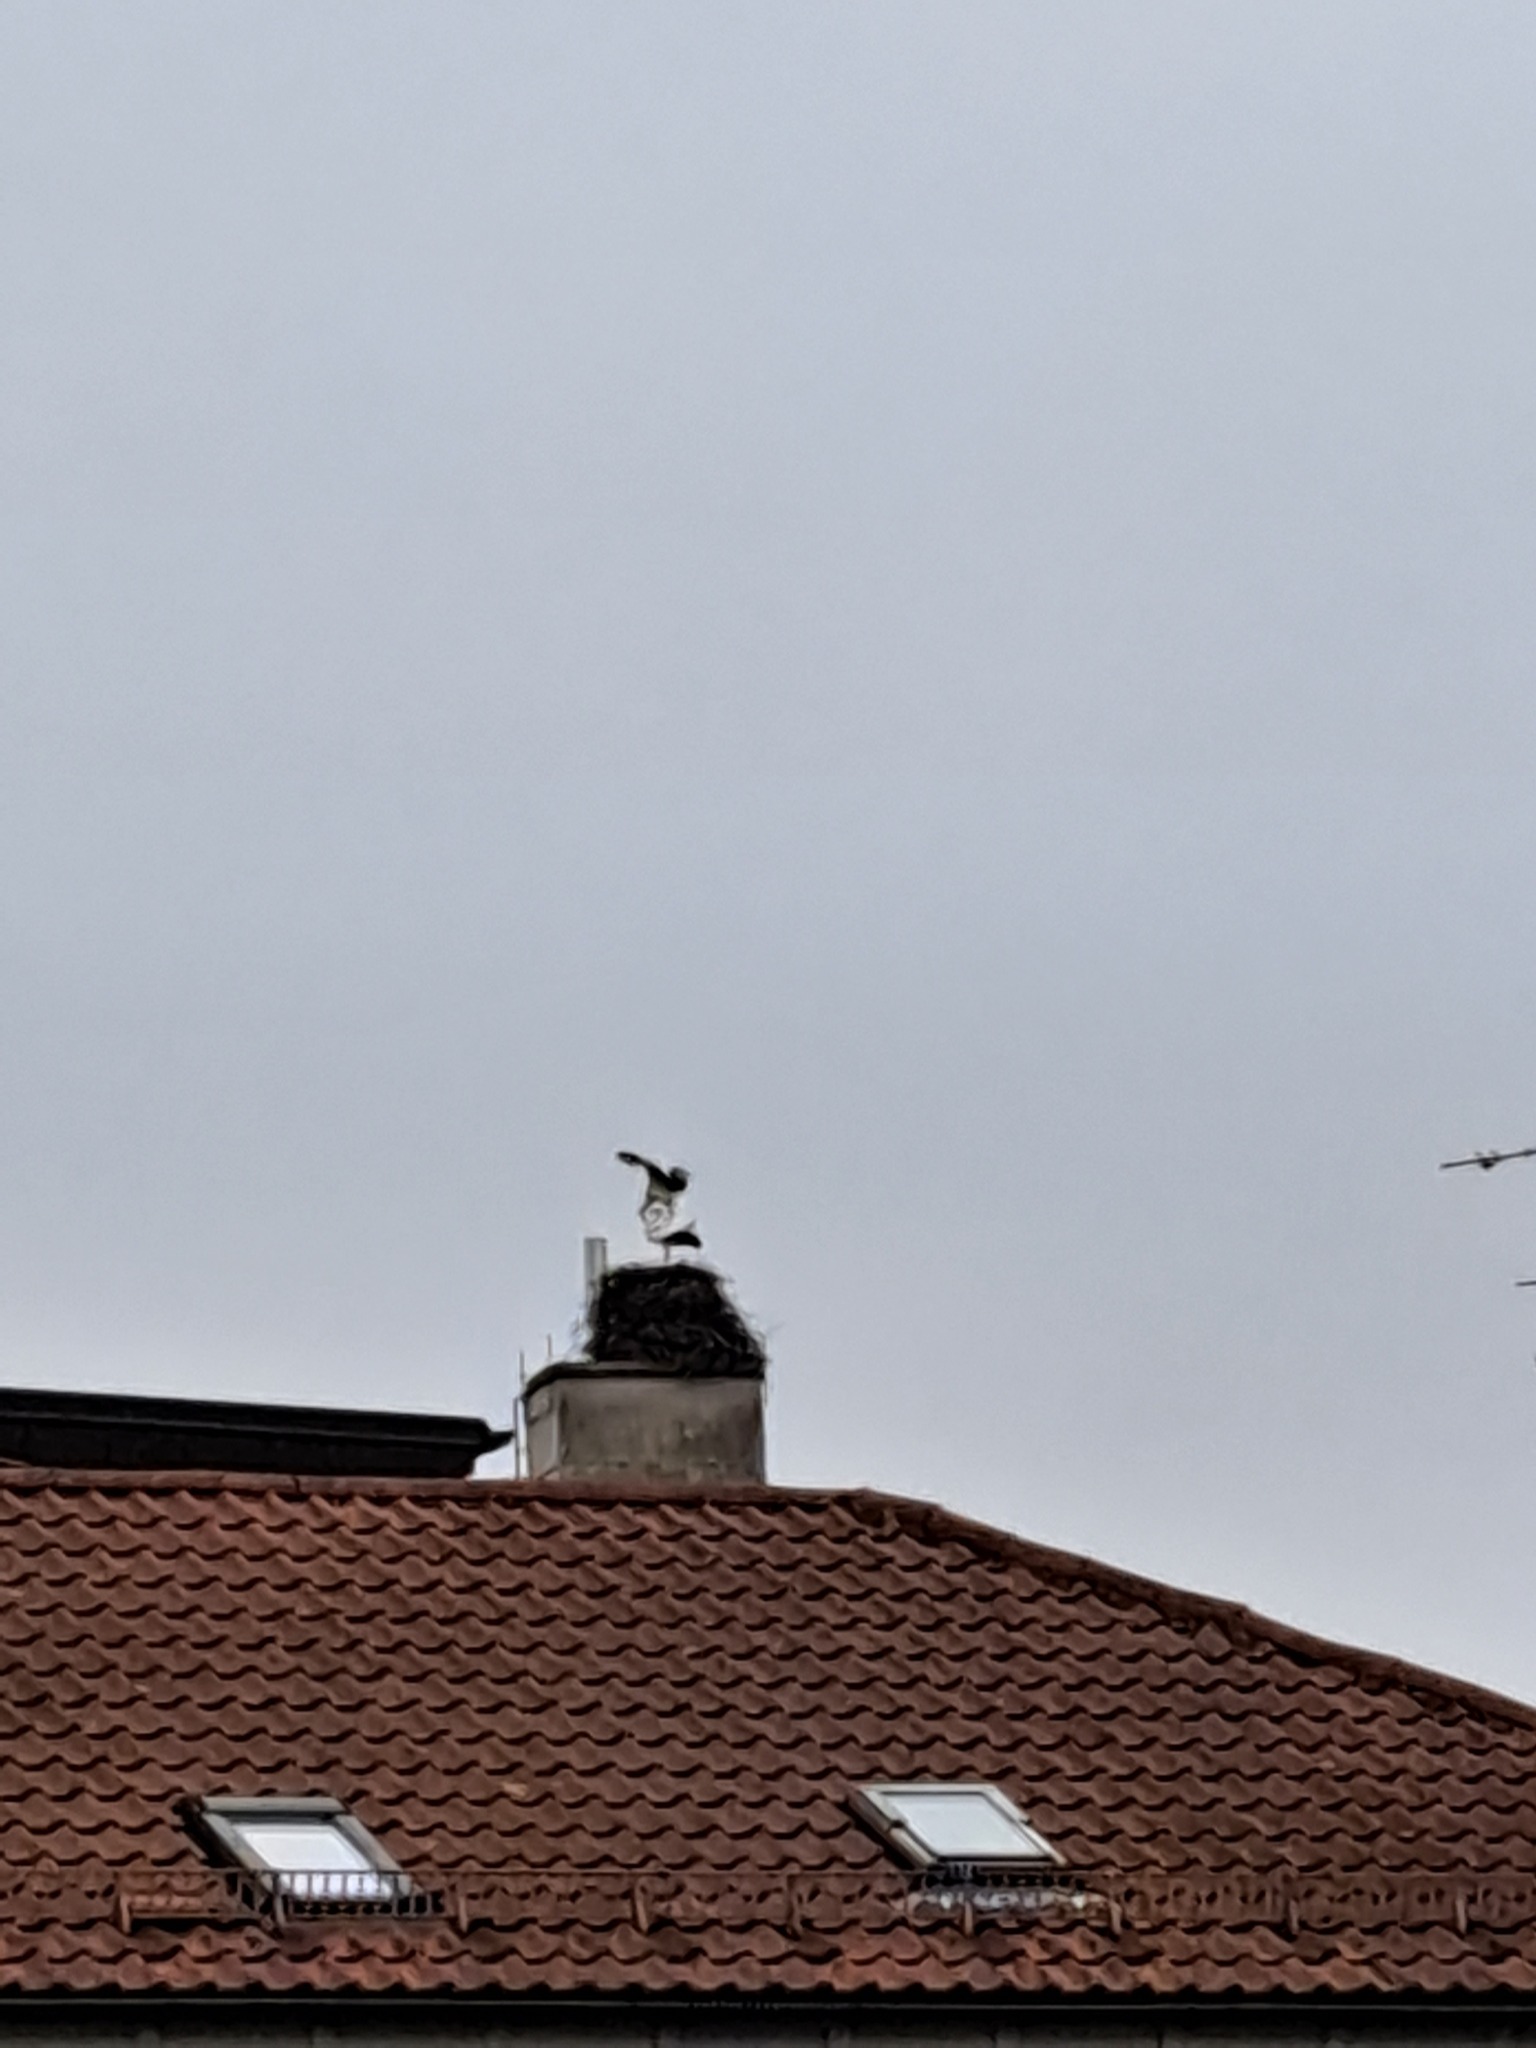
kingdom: Animalia
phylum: Chordata
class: Aves
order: Ciconiiformes
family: Ciconiidae
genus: Ciconia
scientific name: Ciconia ciconia
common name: White stork
